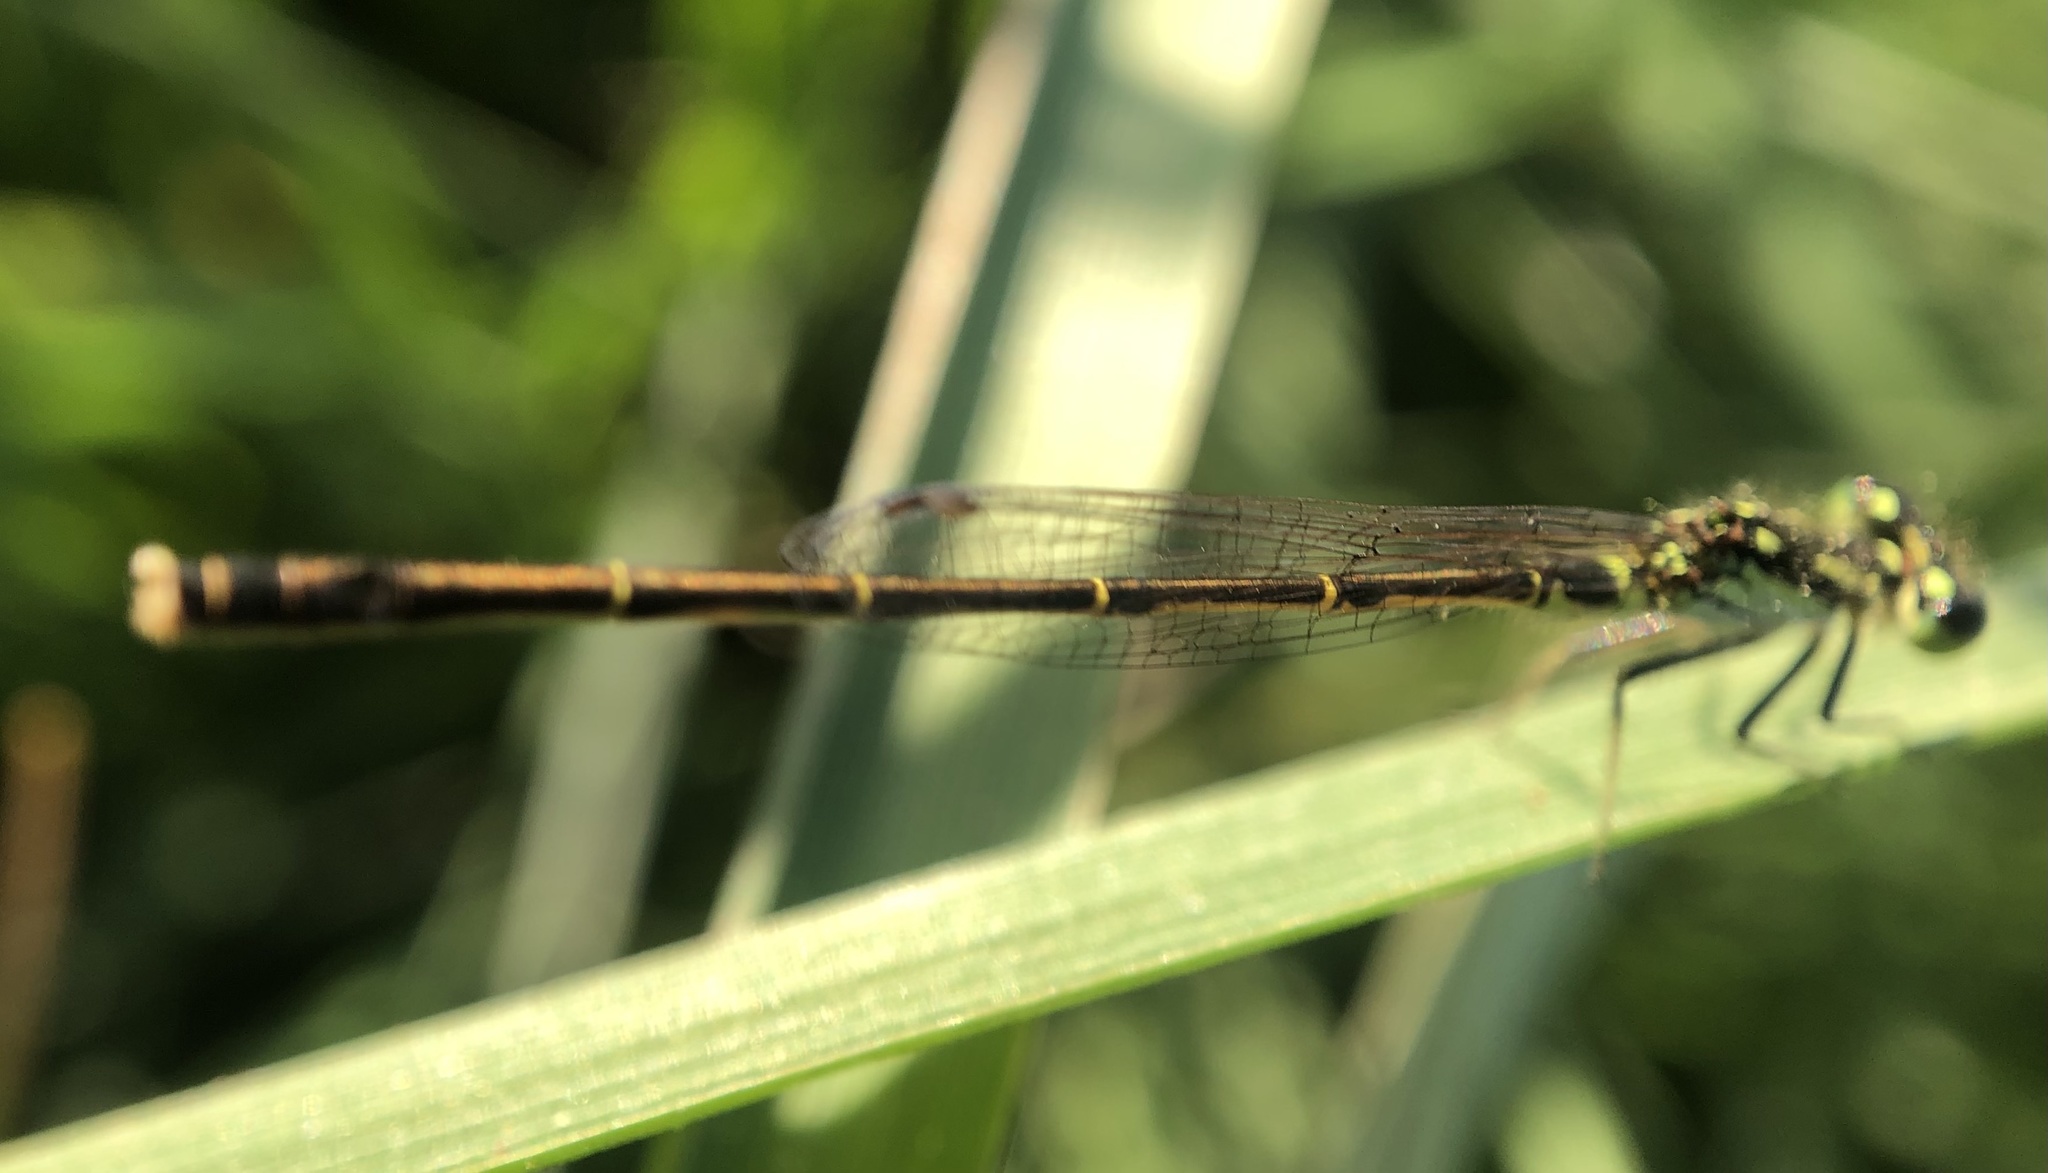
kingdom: Animalia
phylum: Arthropoda
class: Insecta
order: Odonata
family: Coenagrionidae
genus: Ischnura
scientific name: Ischnura posita
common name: Fragile forktail
